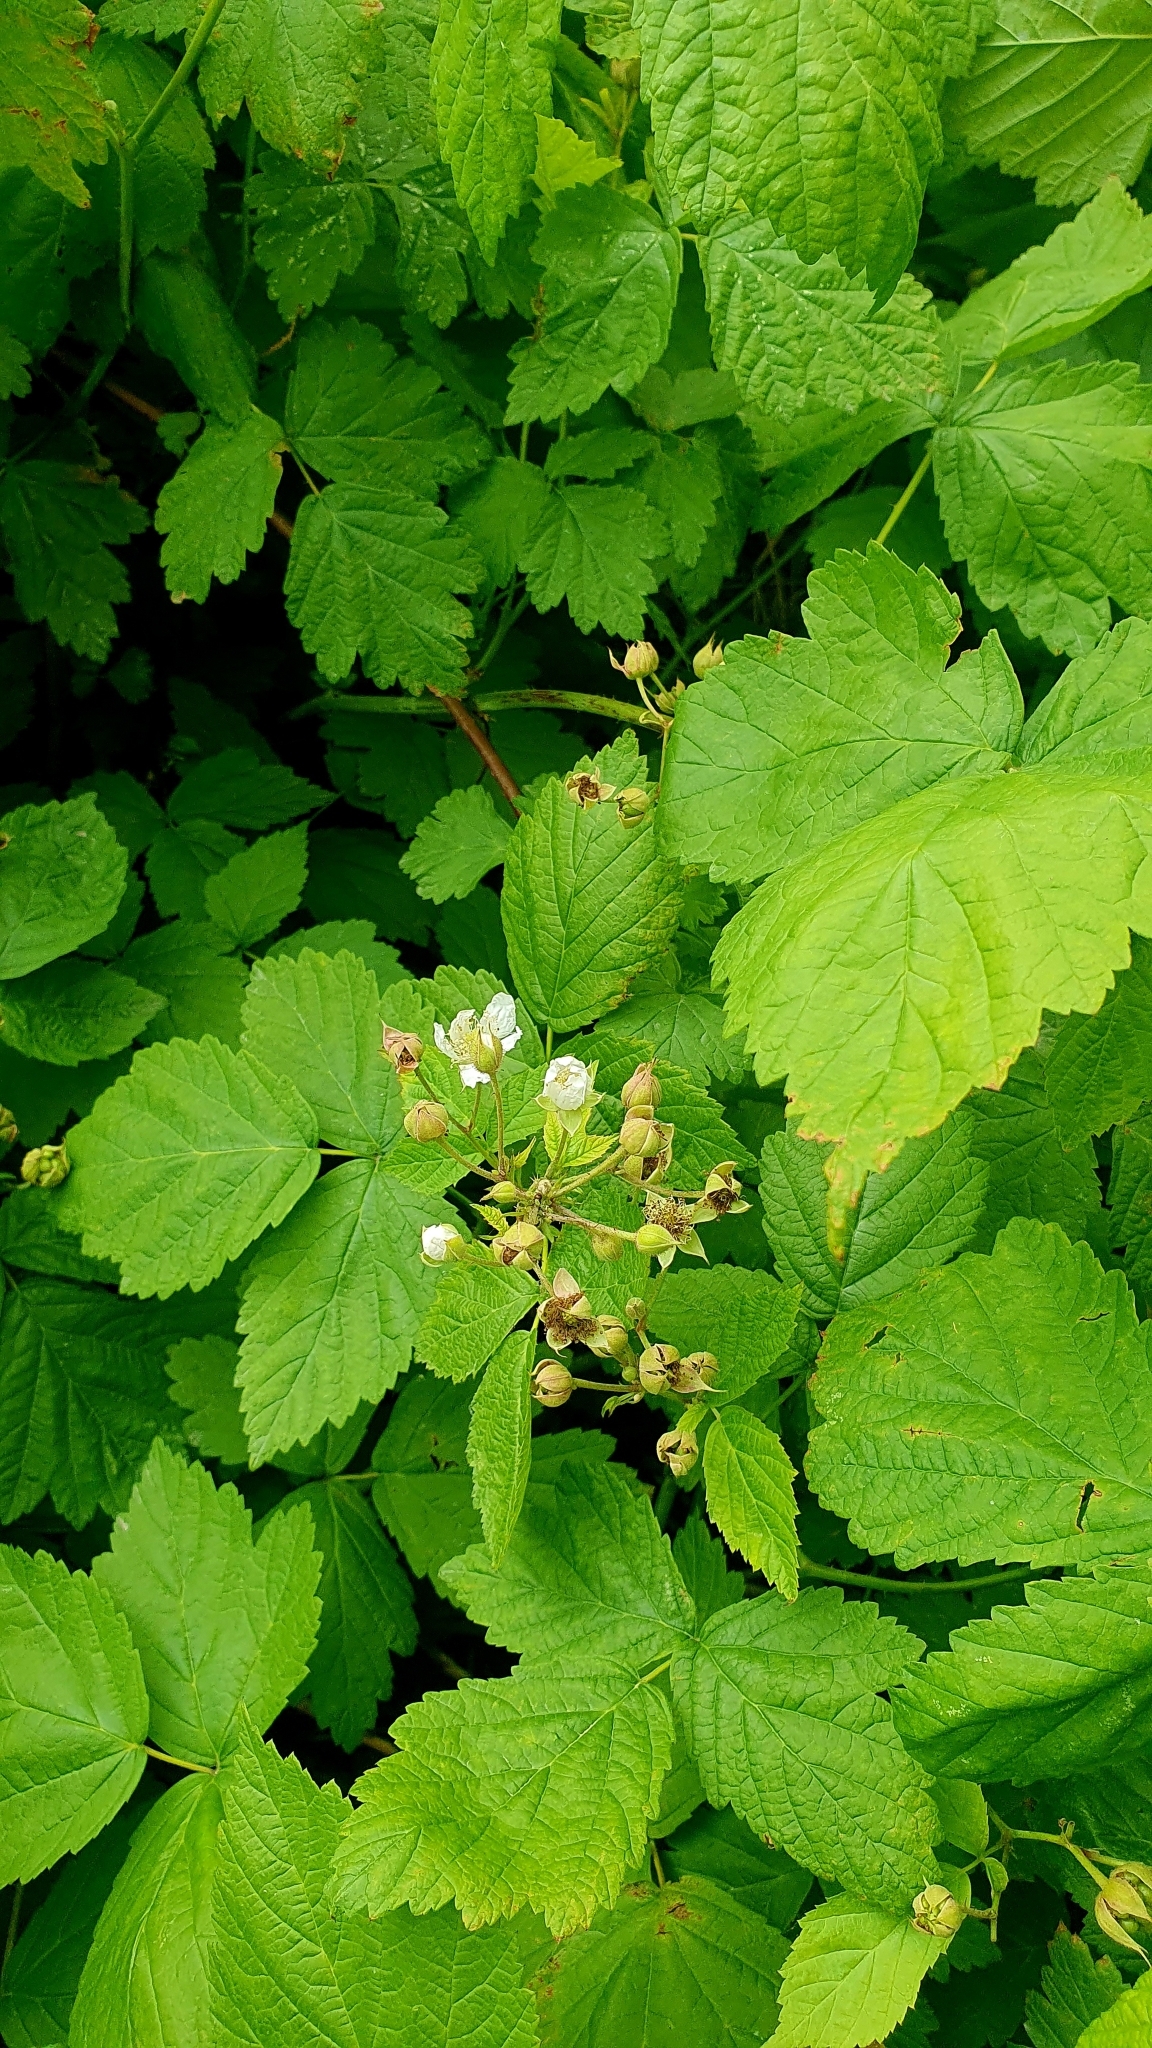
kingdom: Plantae
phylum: Tracheophyta
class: Magnoliopsida
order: Rosales
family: Rosaceae
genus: Rubus
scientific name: Rubus caesius
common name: Dewberry
